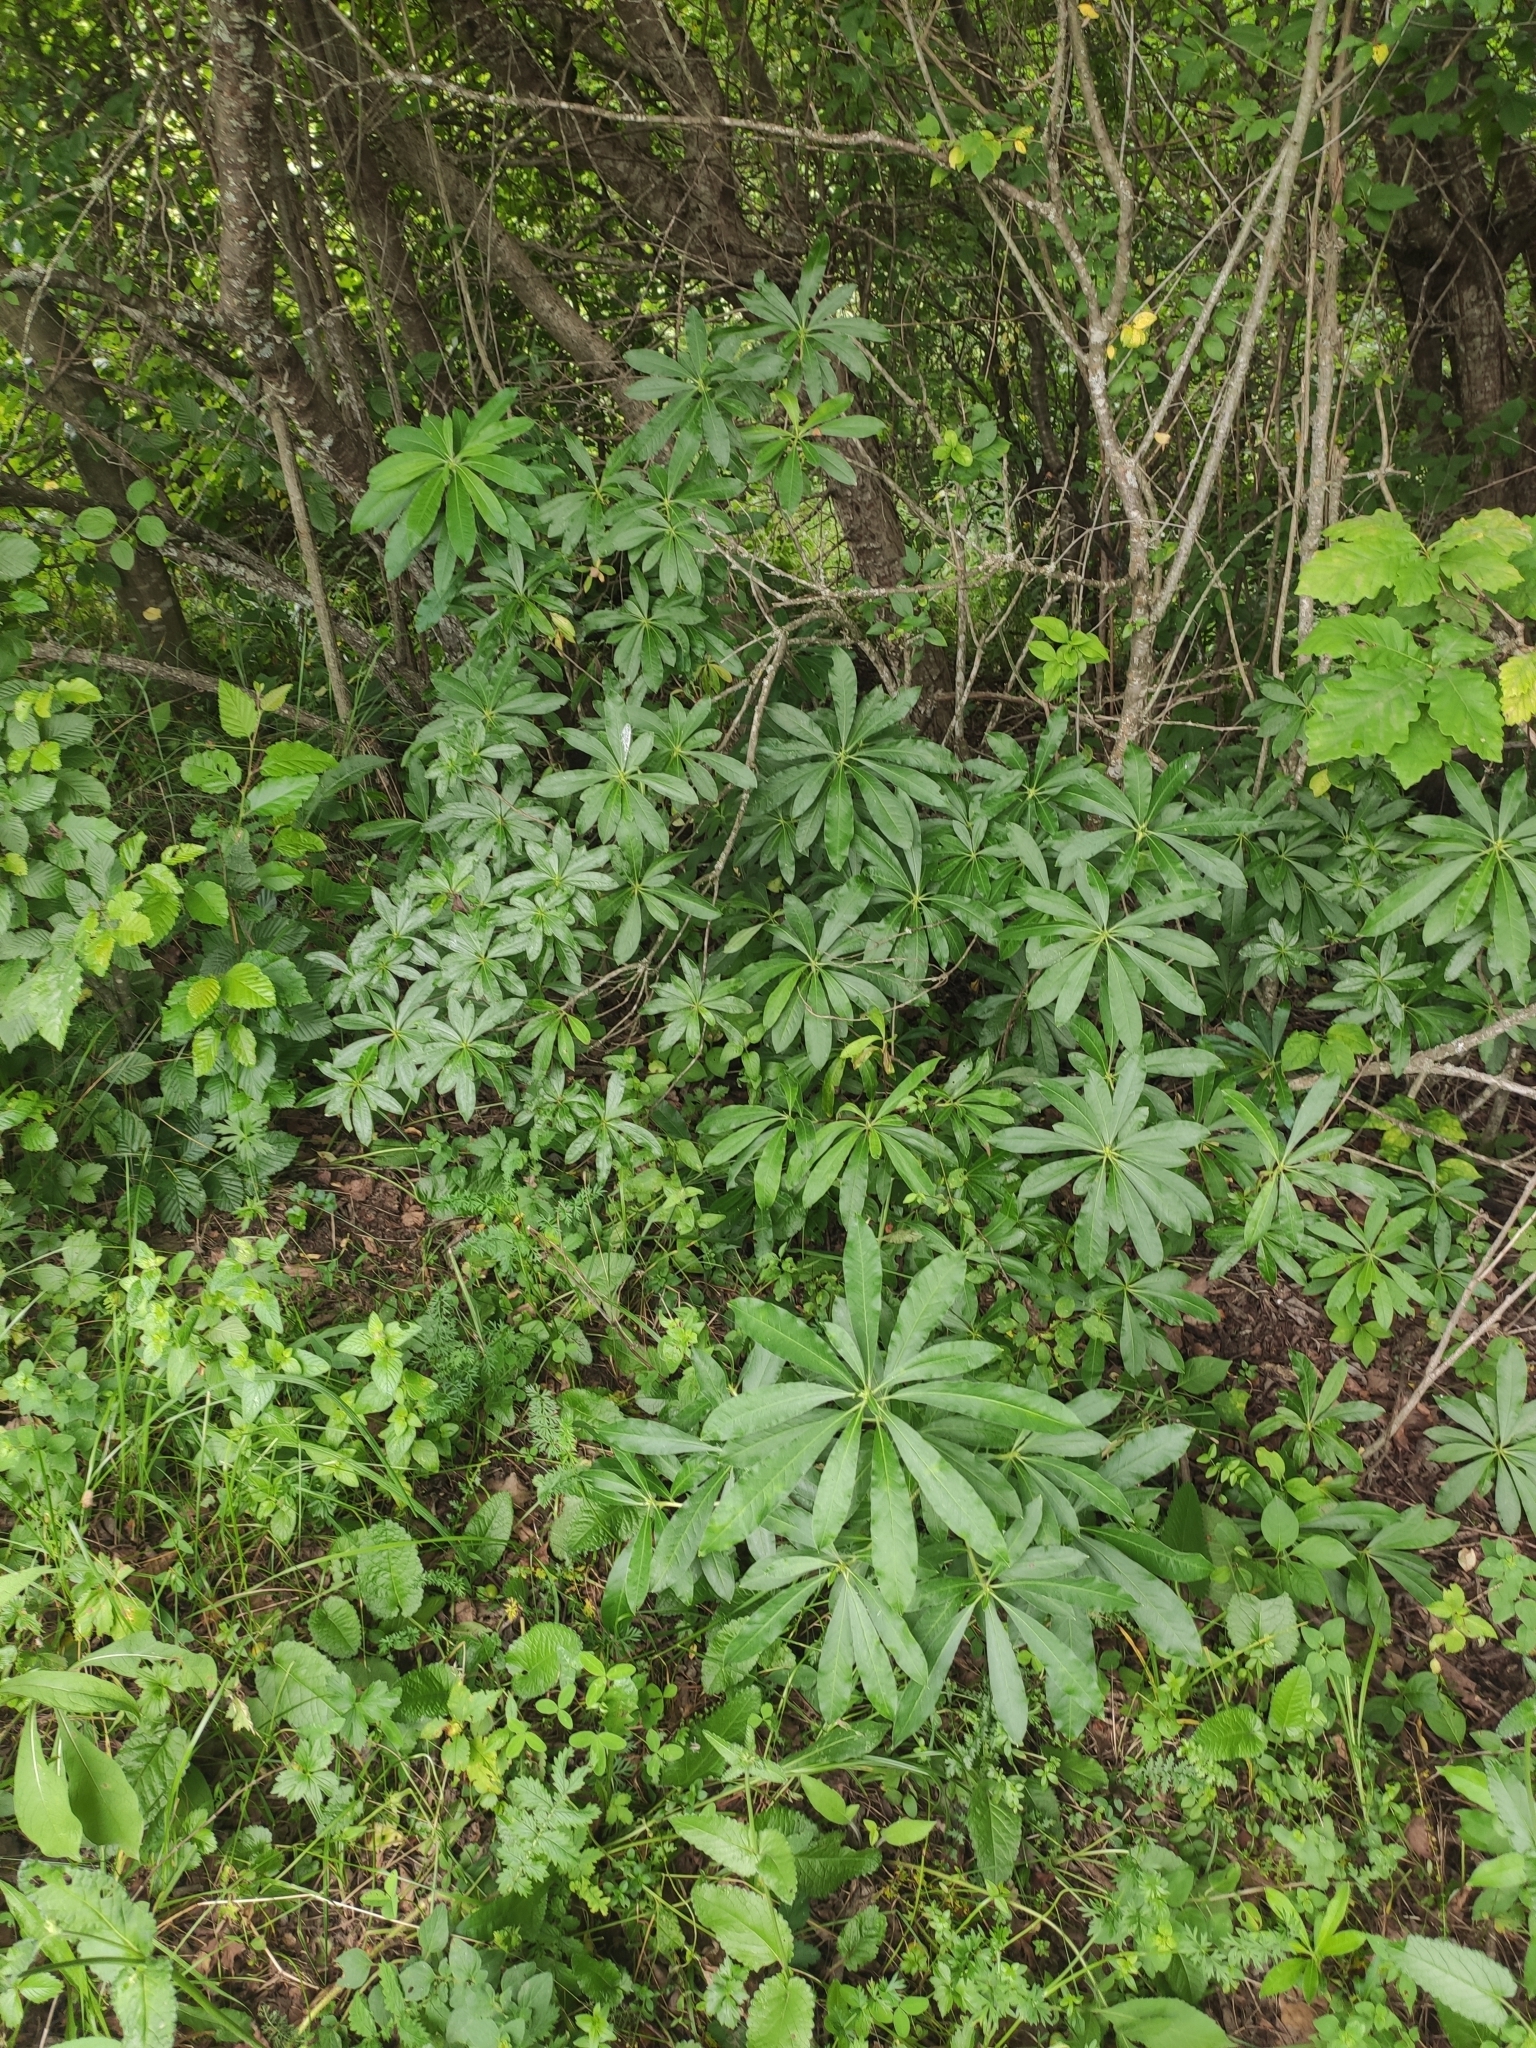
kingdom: Plantae
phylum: Tracheophyta
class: Magnoliopsida
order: Ericales
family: Ericaceae
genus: Rhododendron
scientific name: Rhododendron luteum
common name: Yellow azalea
